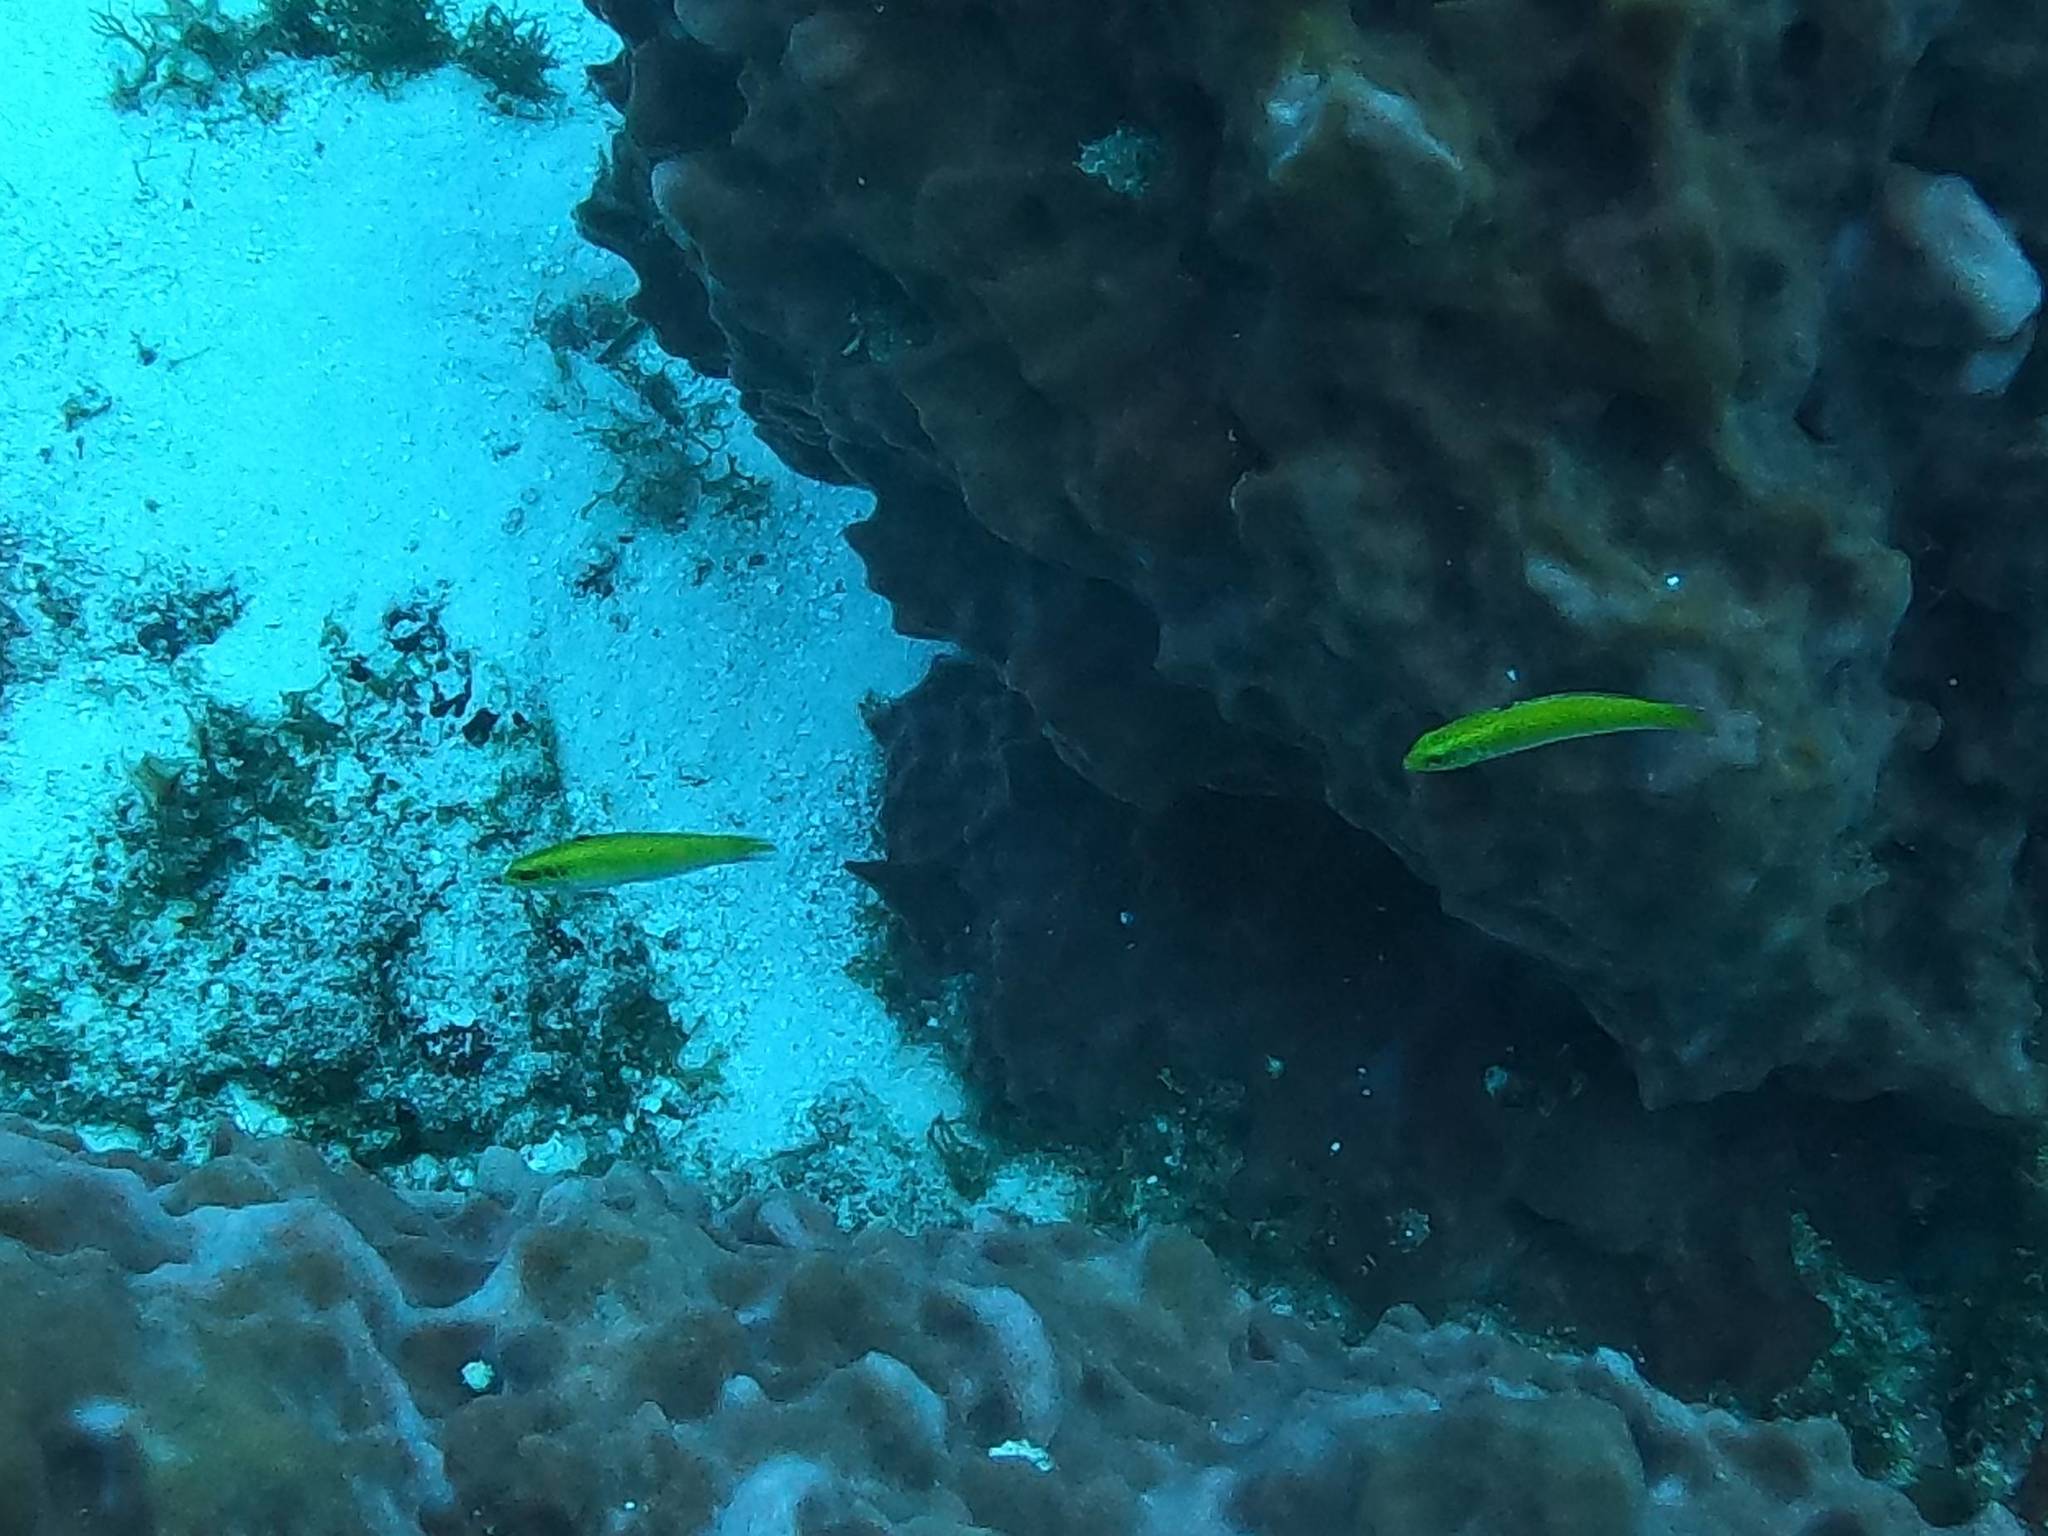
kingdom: Animalia
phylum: Chordata
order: Perciformes
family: Labridae
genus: Thalassoma
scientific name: Thalassoma bifasciatum
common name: Bluehead wrasse
